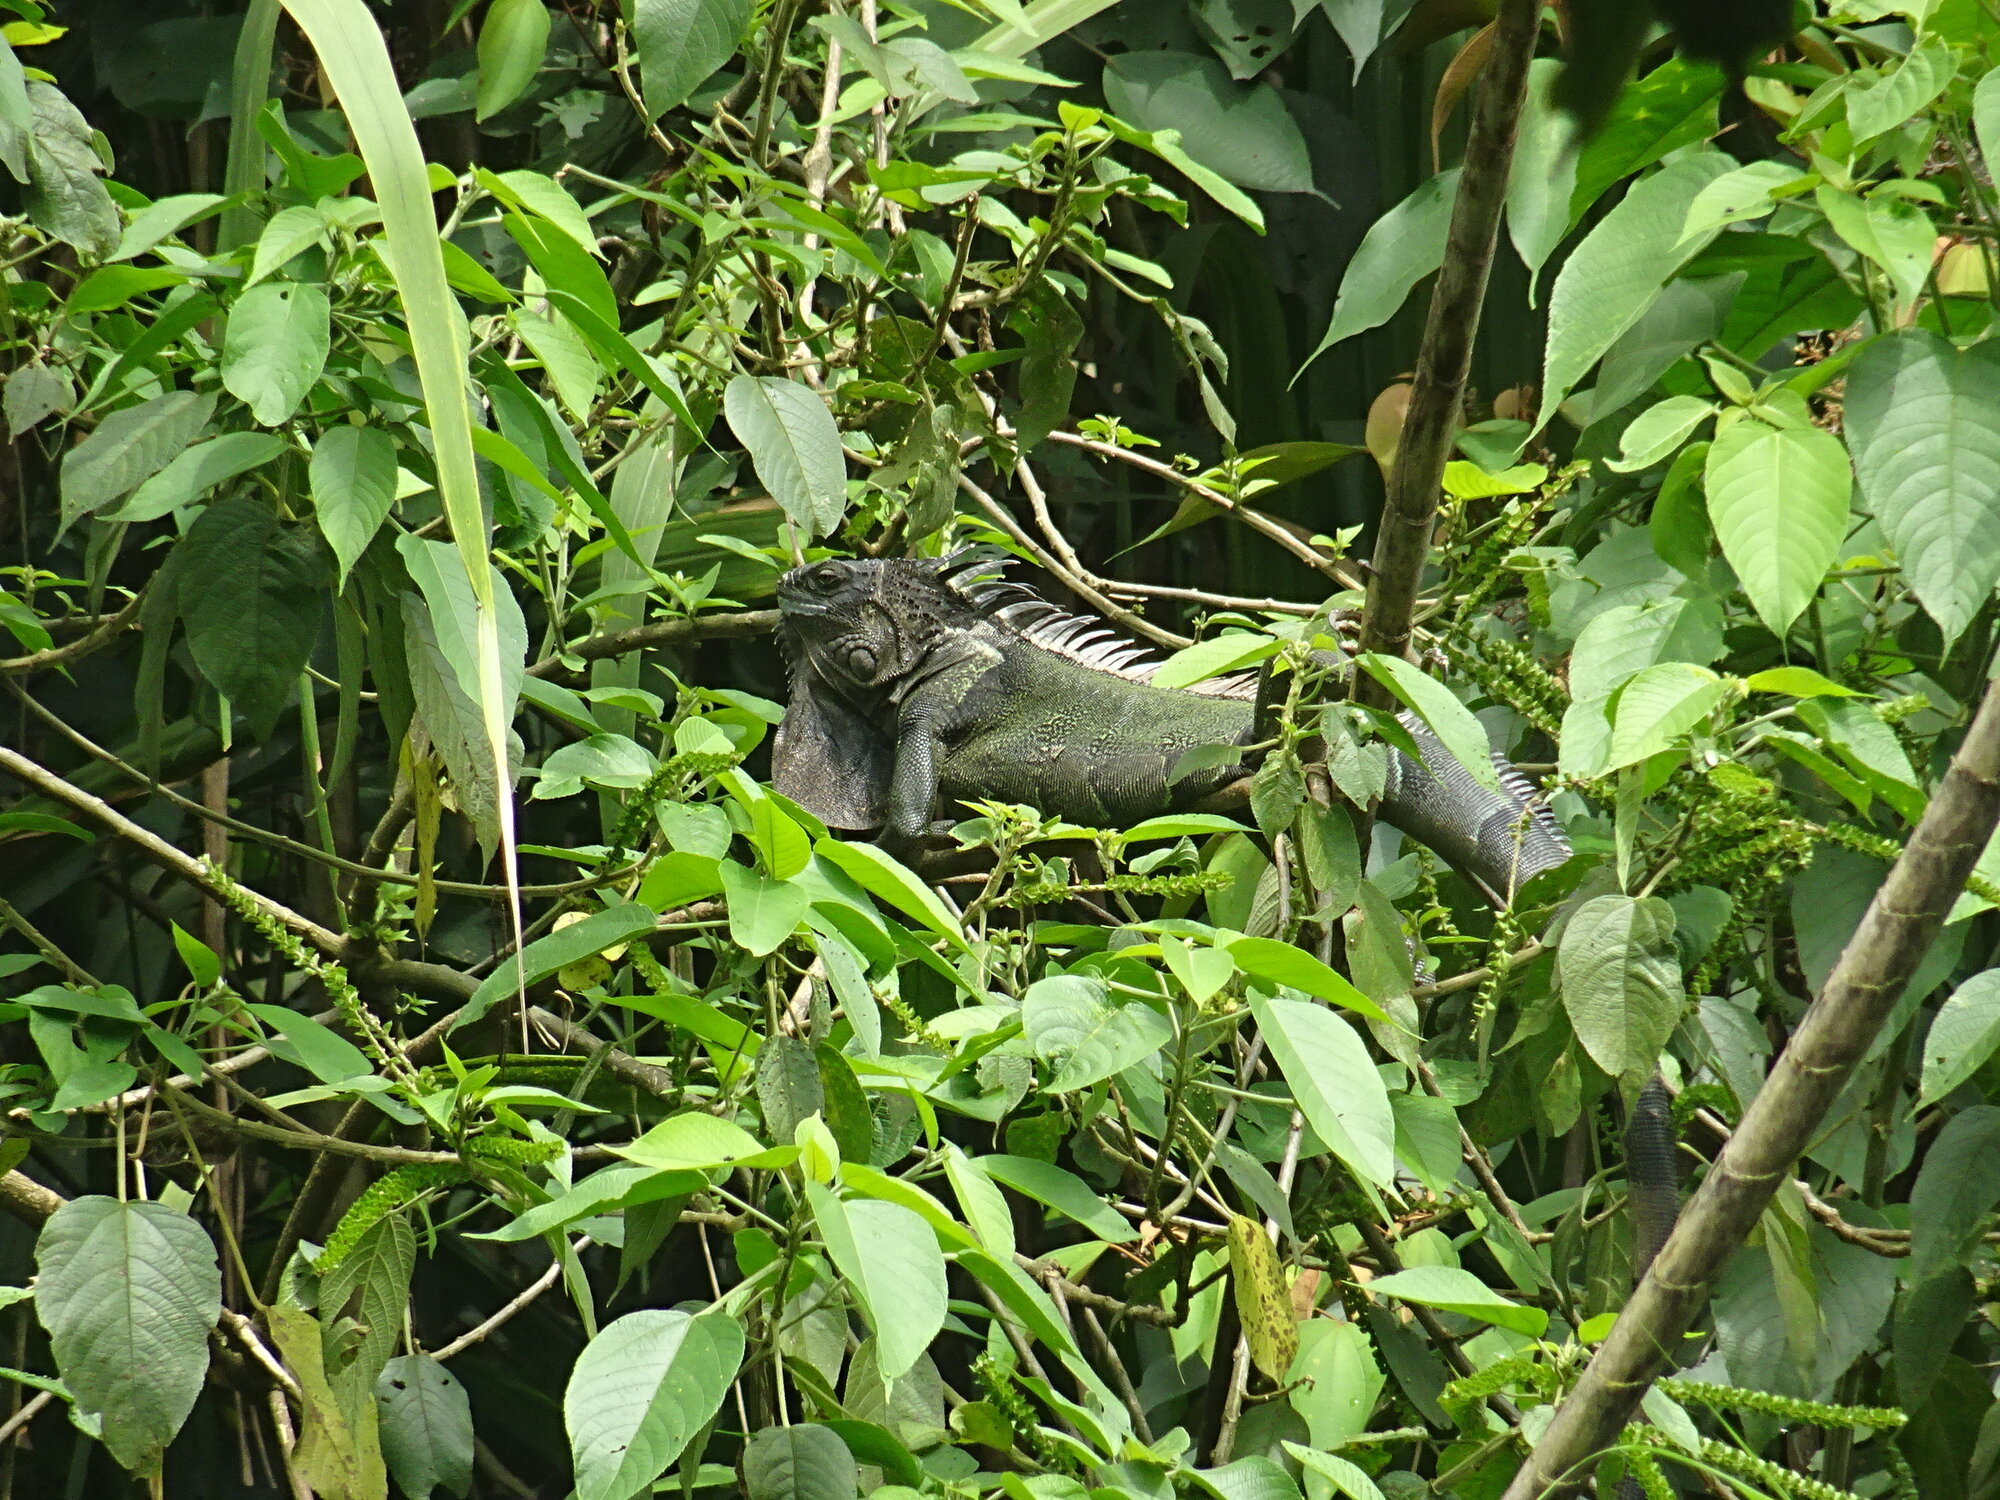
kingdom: Animalia
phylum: Chordata
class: Squamata
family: Iguanidae
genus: Iguana
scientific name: Iguana iguana
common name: Green iguana
